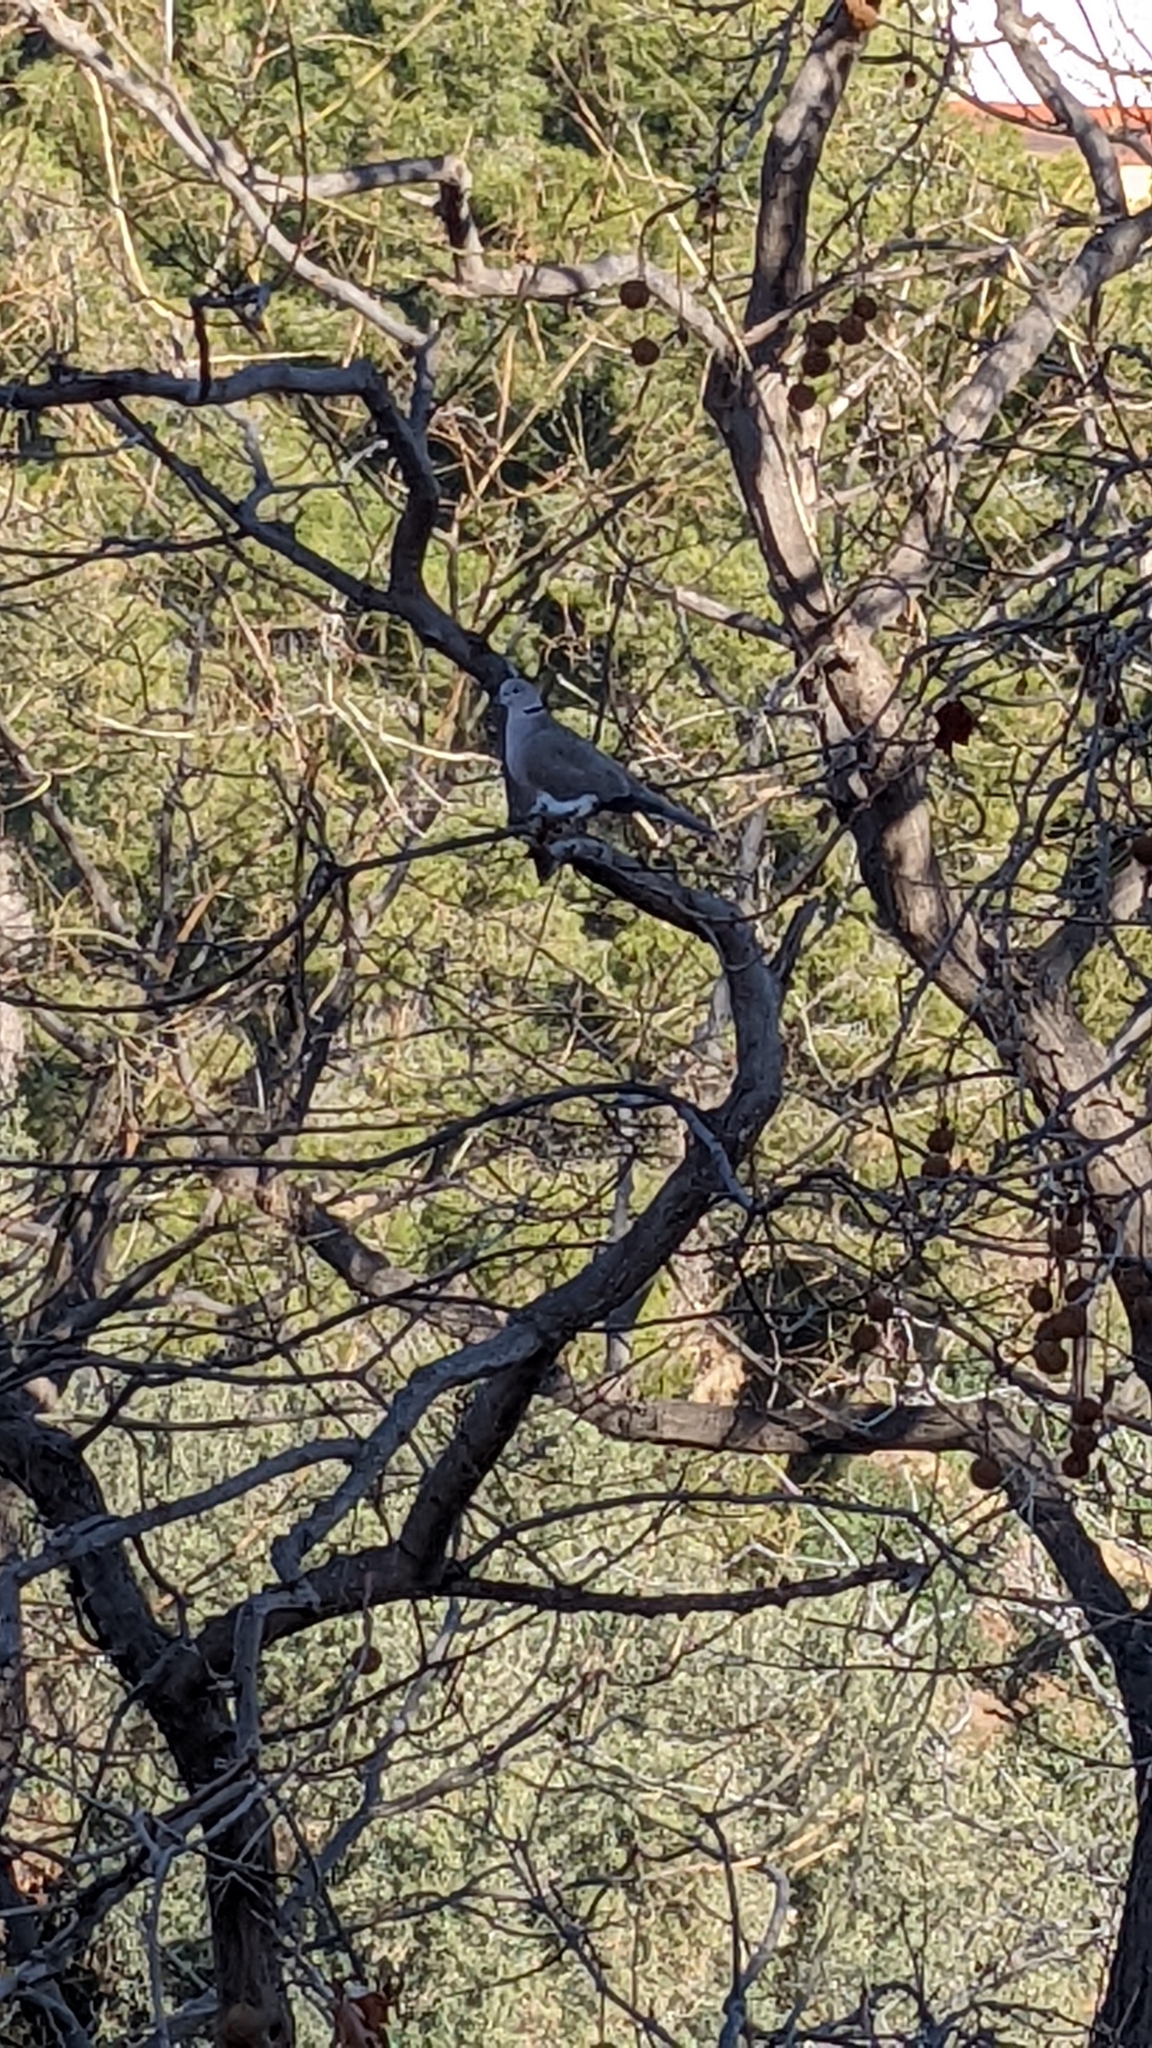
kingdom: Animalia
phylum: Chordata
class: Aves
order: Columbiformes
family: Columbidae
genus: Streptopelia
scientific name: Streptopelia decaocto
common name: Eurasian collared dove
